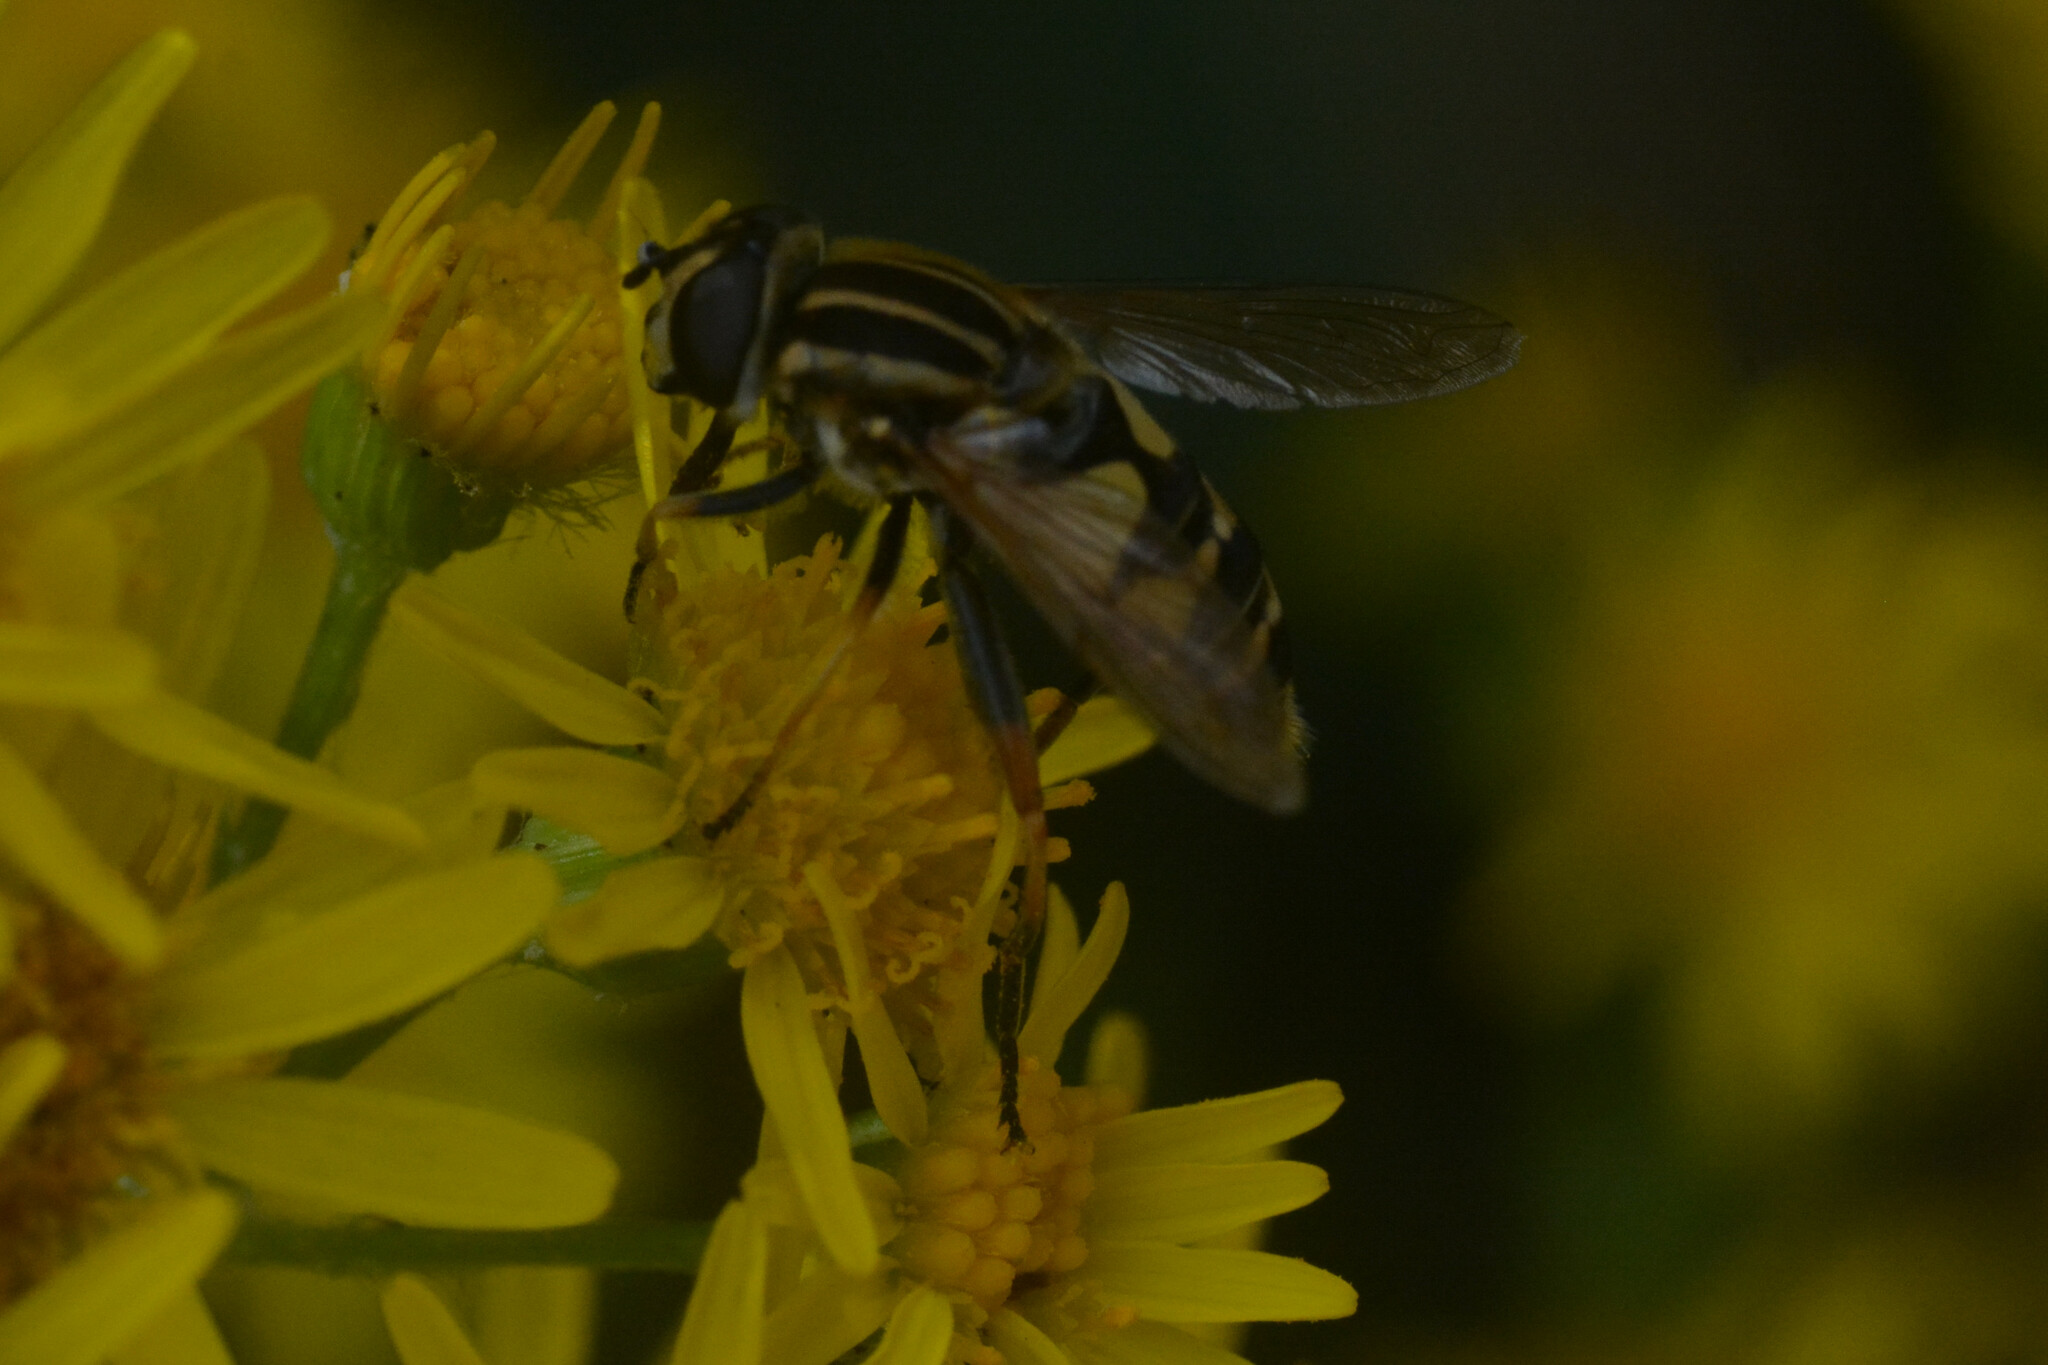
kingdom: Animalia
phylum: Arthropoda
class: Insecta
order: Diptera
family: Syrphidae
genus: Helophilus
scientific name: Helophilus pendulus
